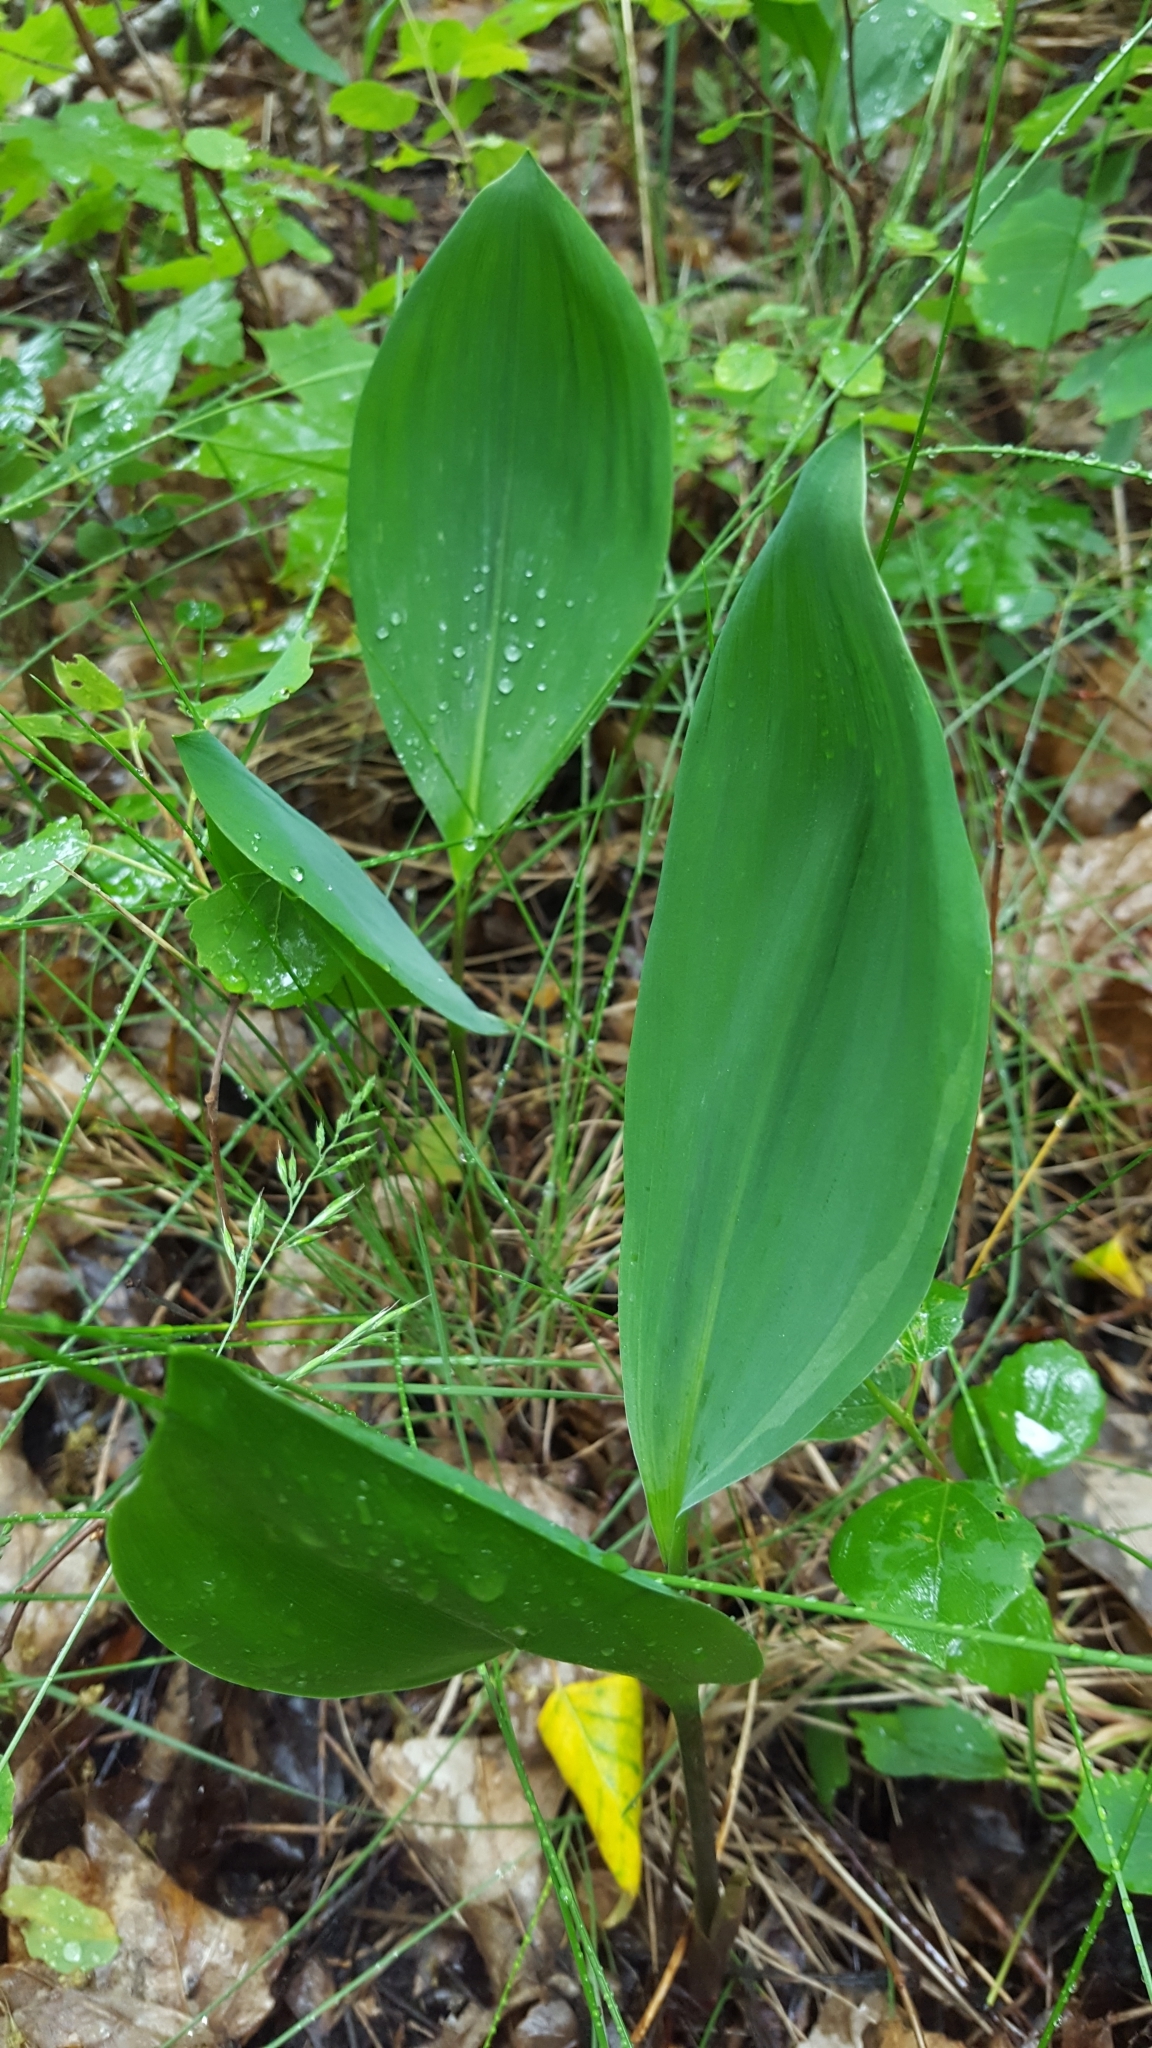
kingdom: Plantae
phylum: Tracheophyta
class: Liliopsida
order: Asparagales
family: Asparagaceae
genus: Convallaria
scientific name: Convallaria majalis
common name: Lily-of-the-valley
